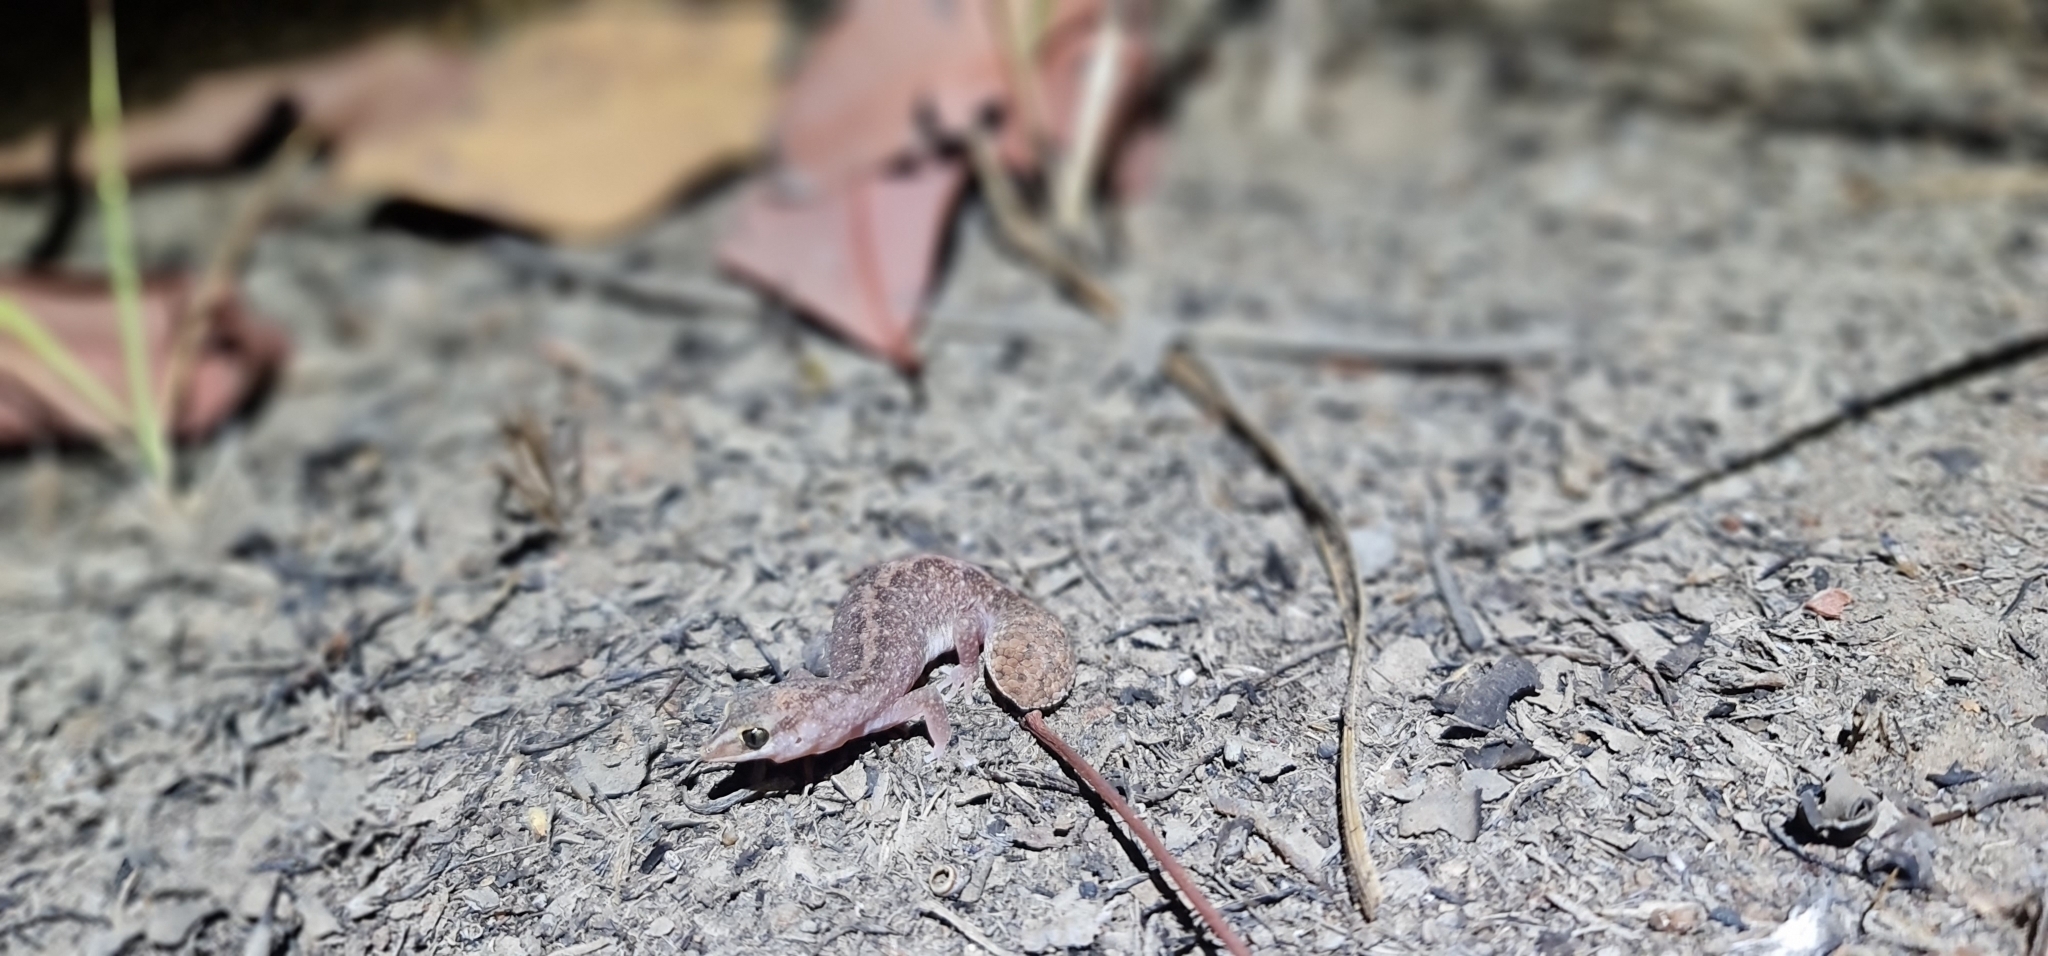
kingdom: Animalia
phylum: Chordata
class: Squamata
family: Diplodactylidae
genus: Diplodactylus
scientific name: Diplodactylus hillii
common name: Northern fat-tailed gecko
